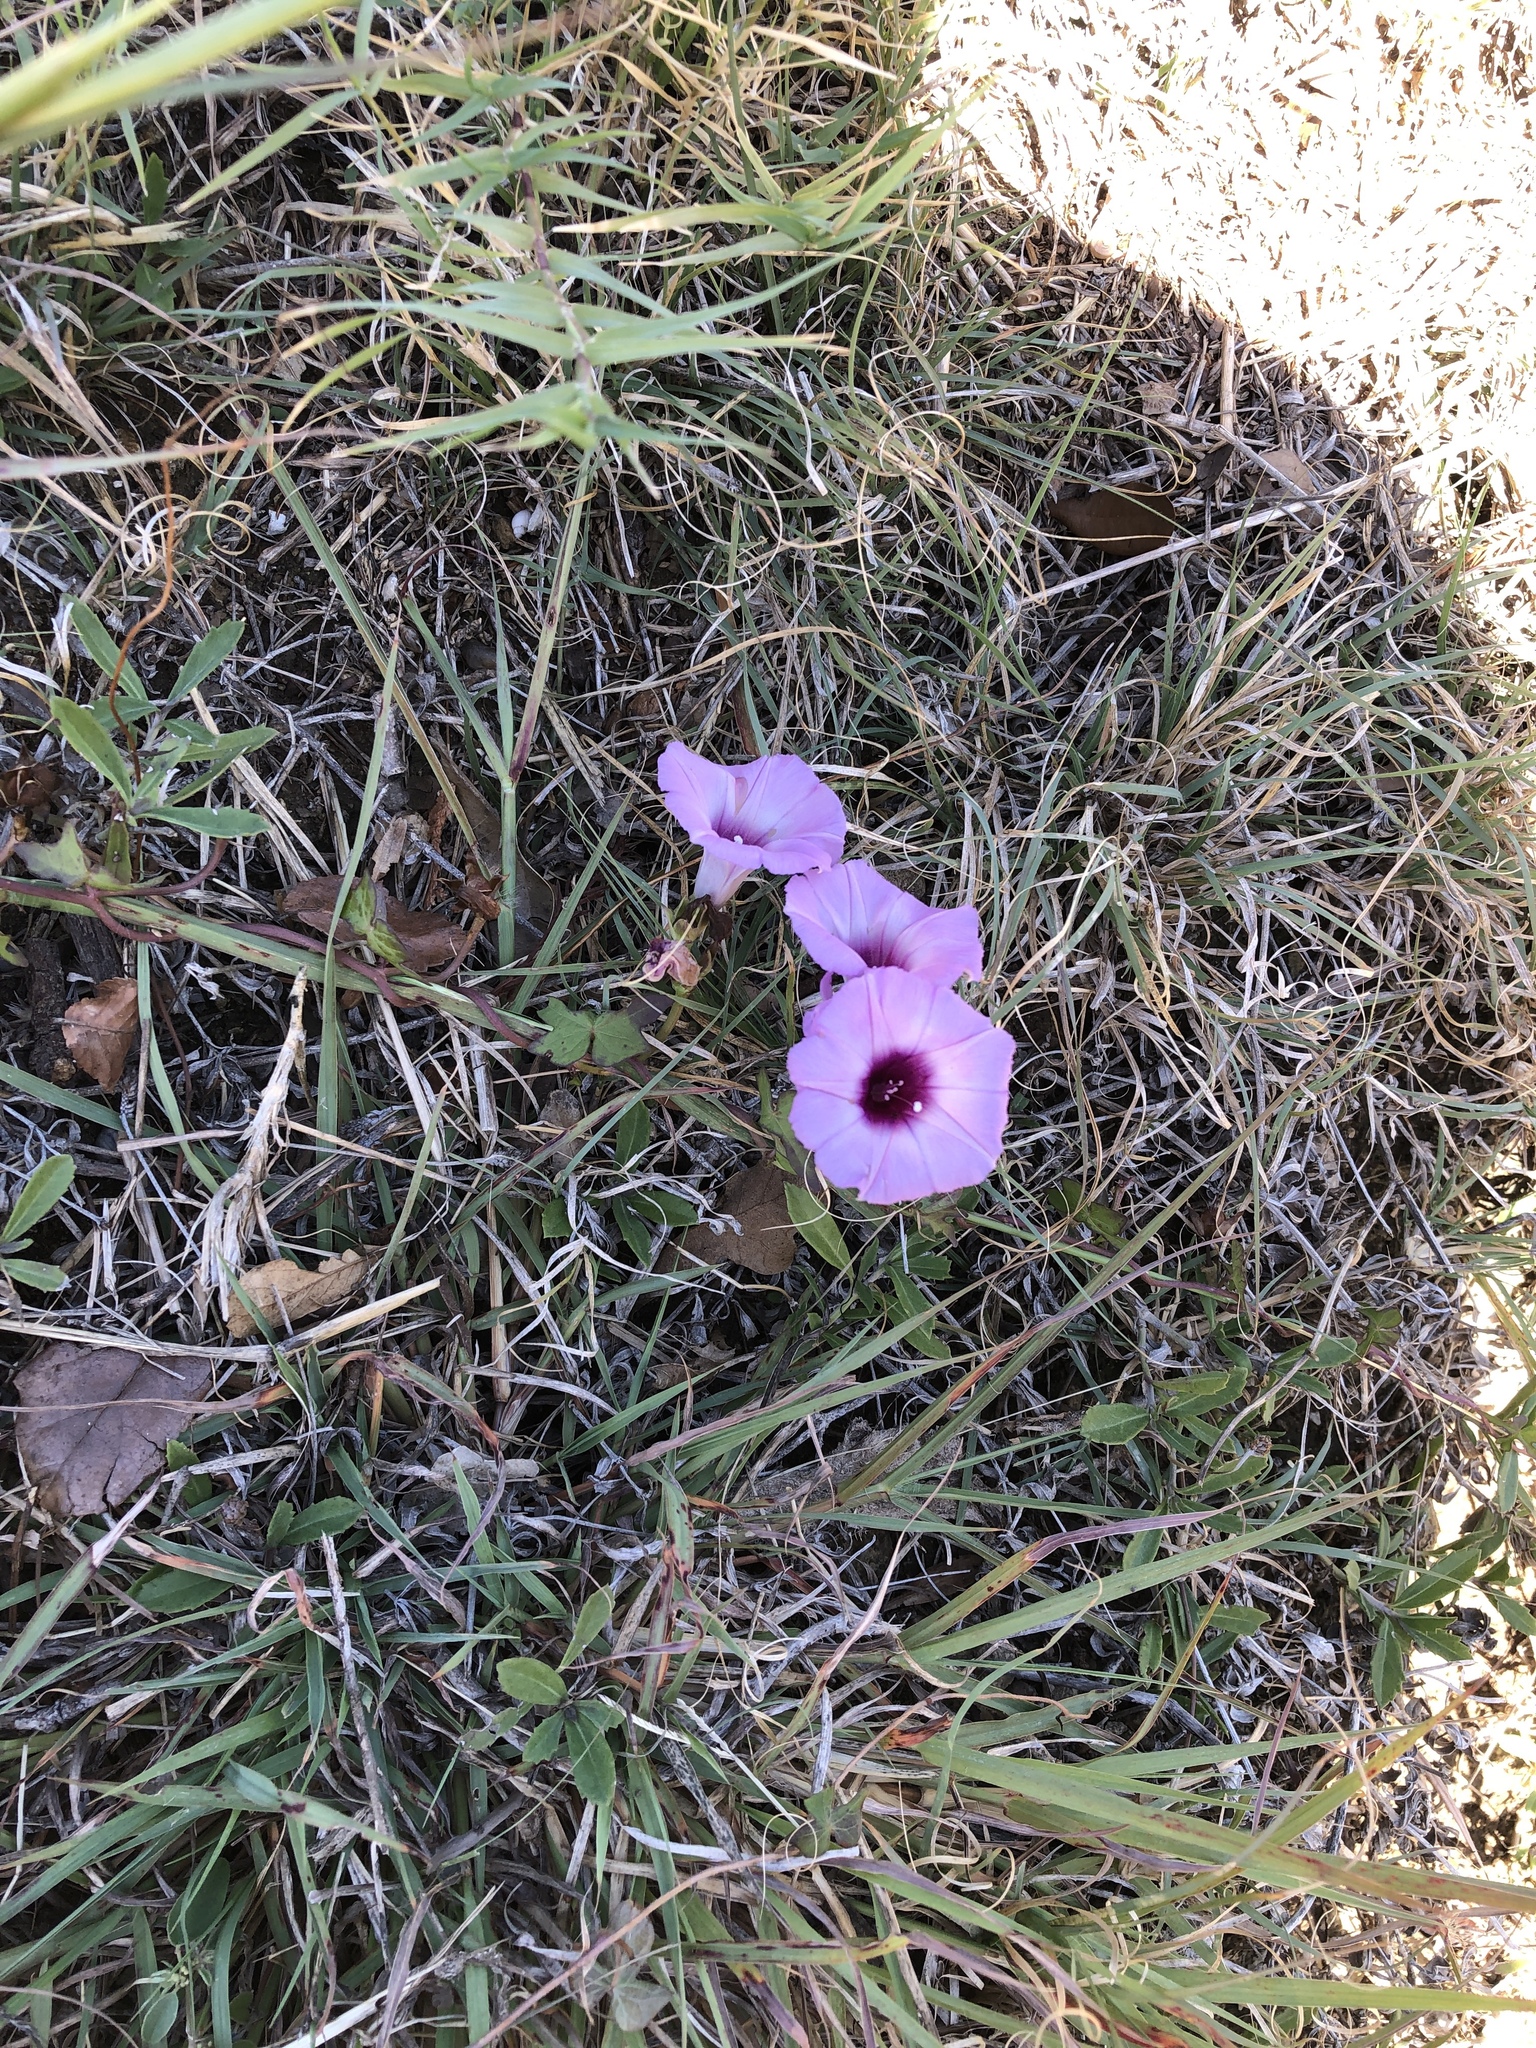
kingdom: Plantae
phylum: Tracheophyta
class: Magnoliopsida
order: Solanales
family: Convolvulaceae
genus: Ipomoea
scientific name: Ipomoea cordatotriloba
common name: Cotton morning glory
